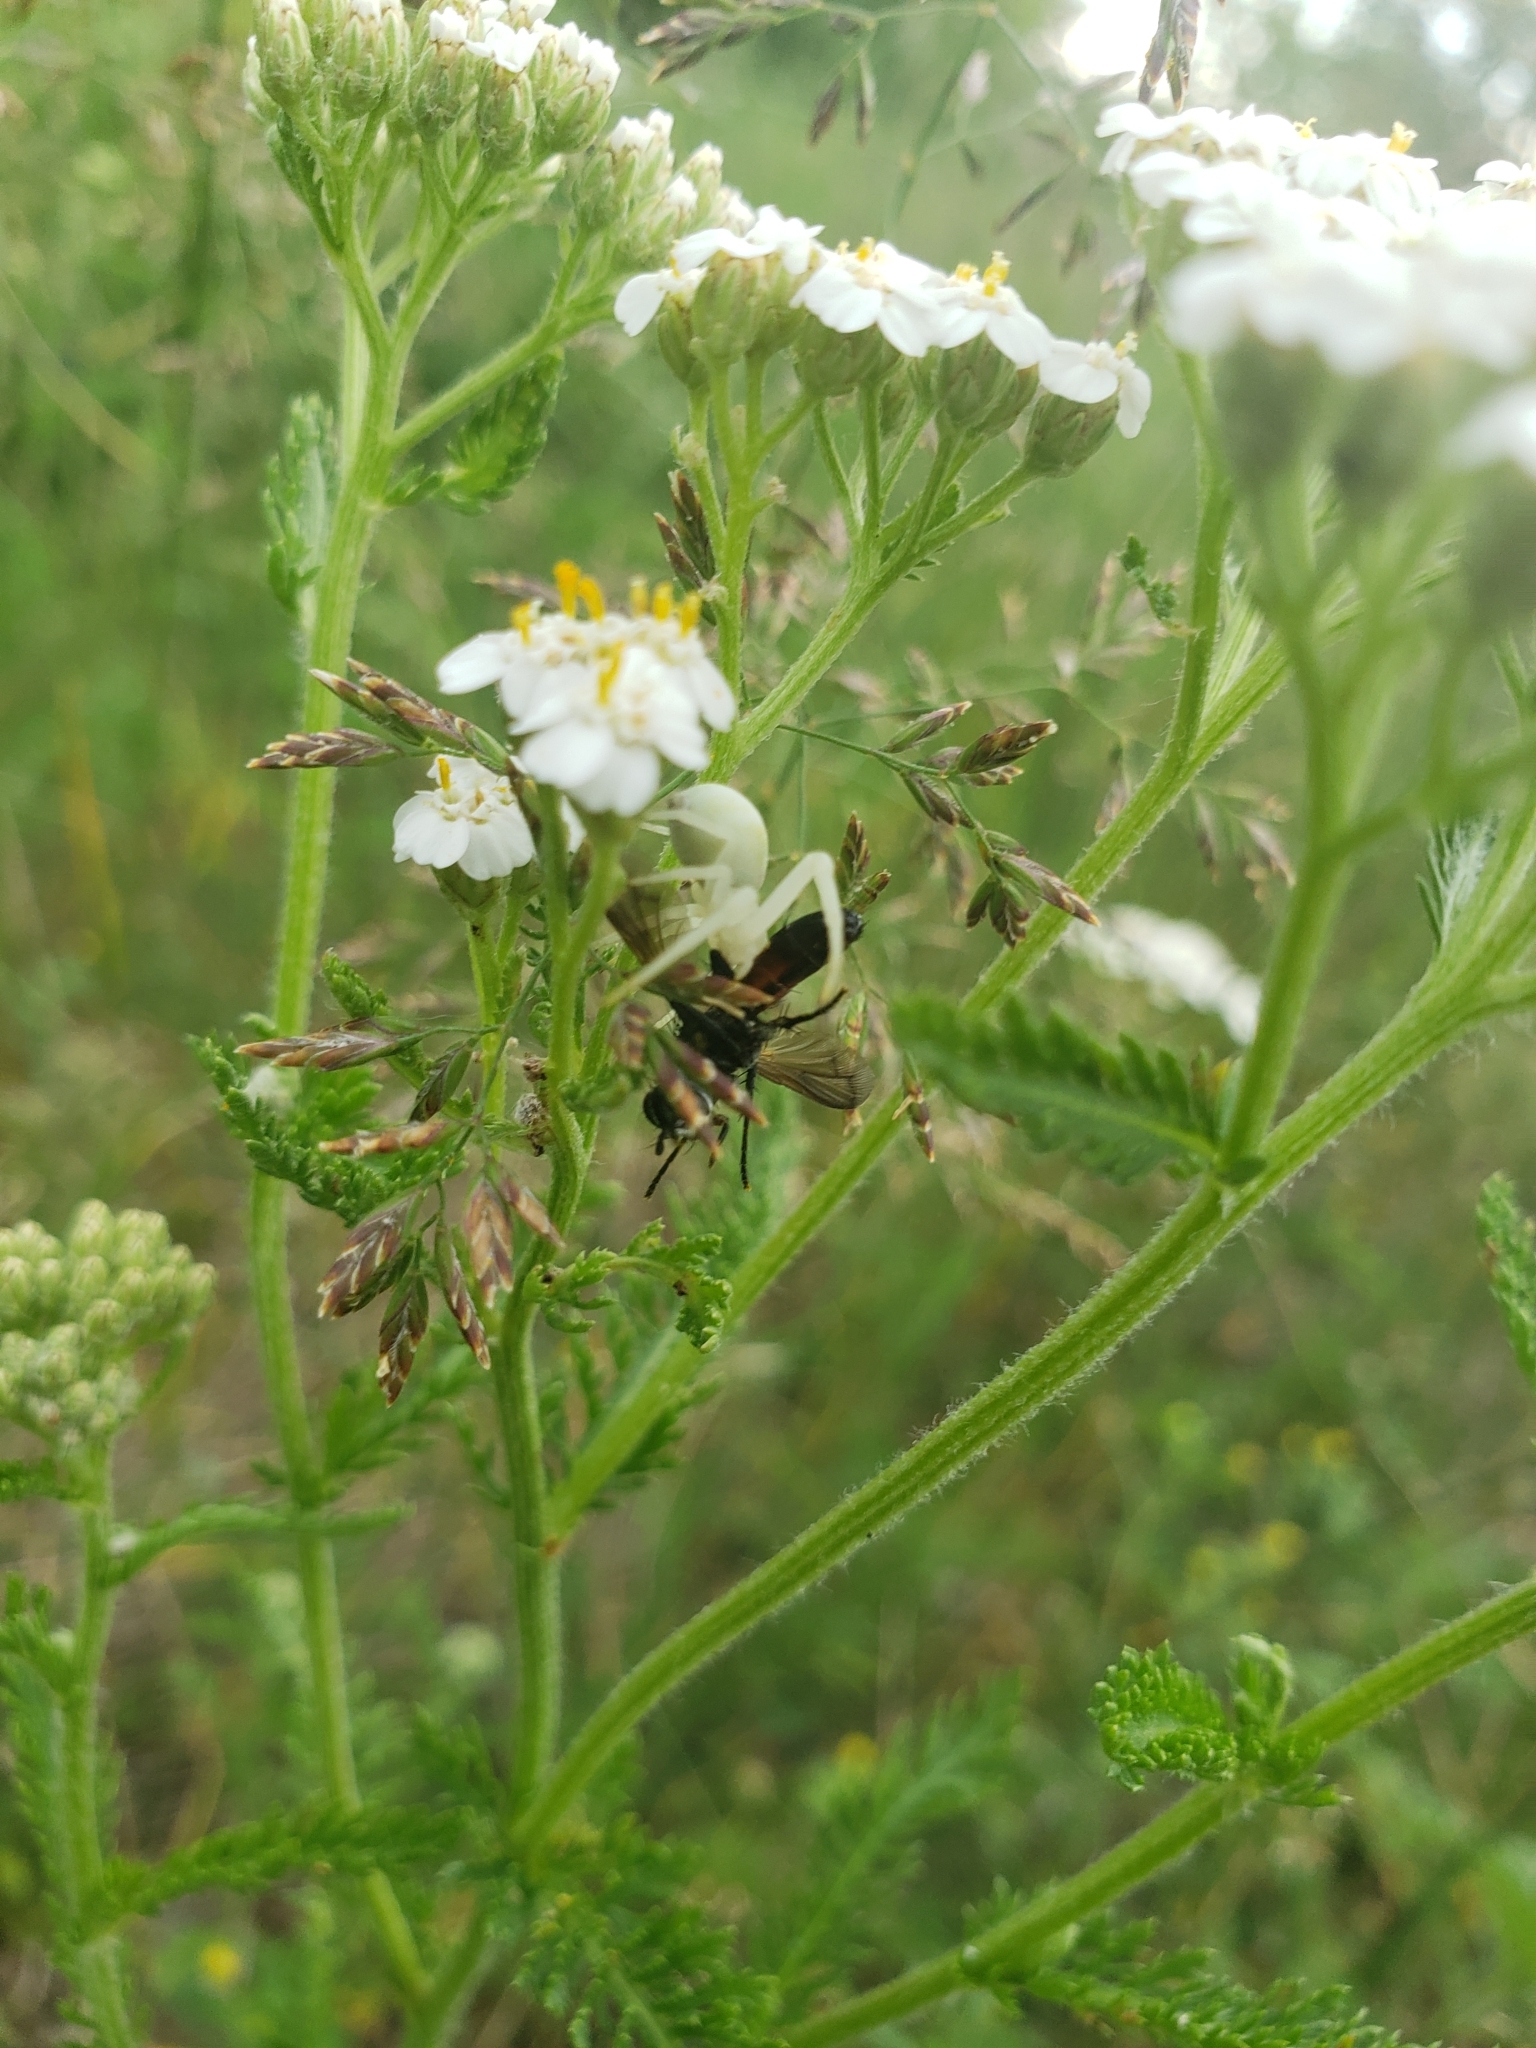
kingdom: Animalia
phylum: Arthropoda
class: Arachnida
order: Araneae
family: Thomisidae
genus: Misumena
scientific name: Misumena vatia
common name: Goldenrod crab spider
